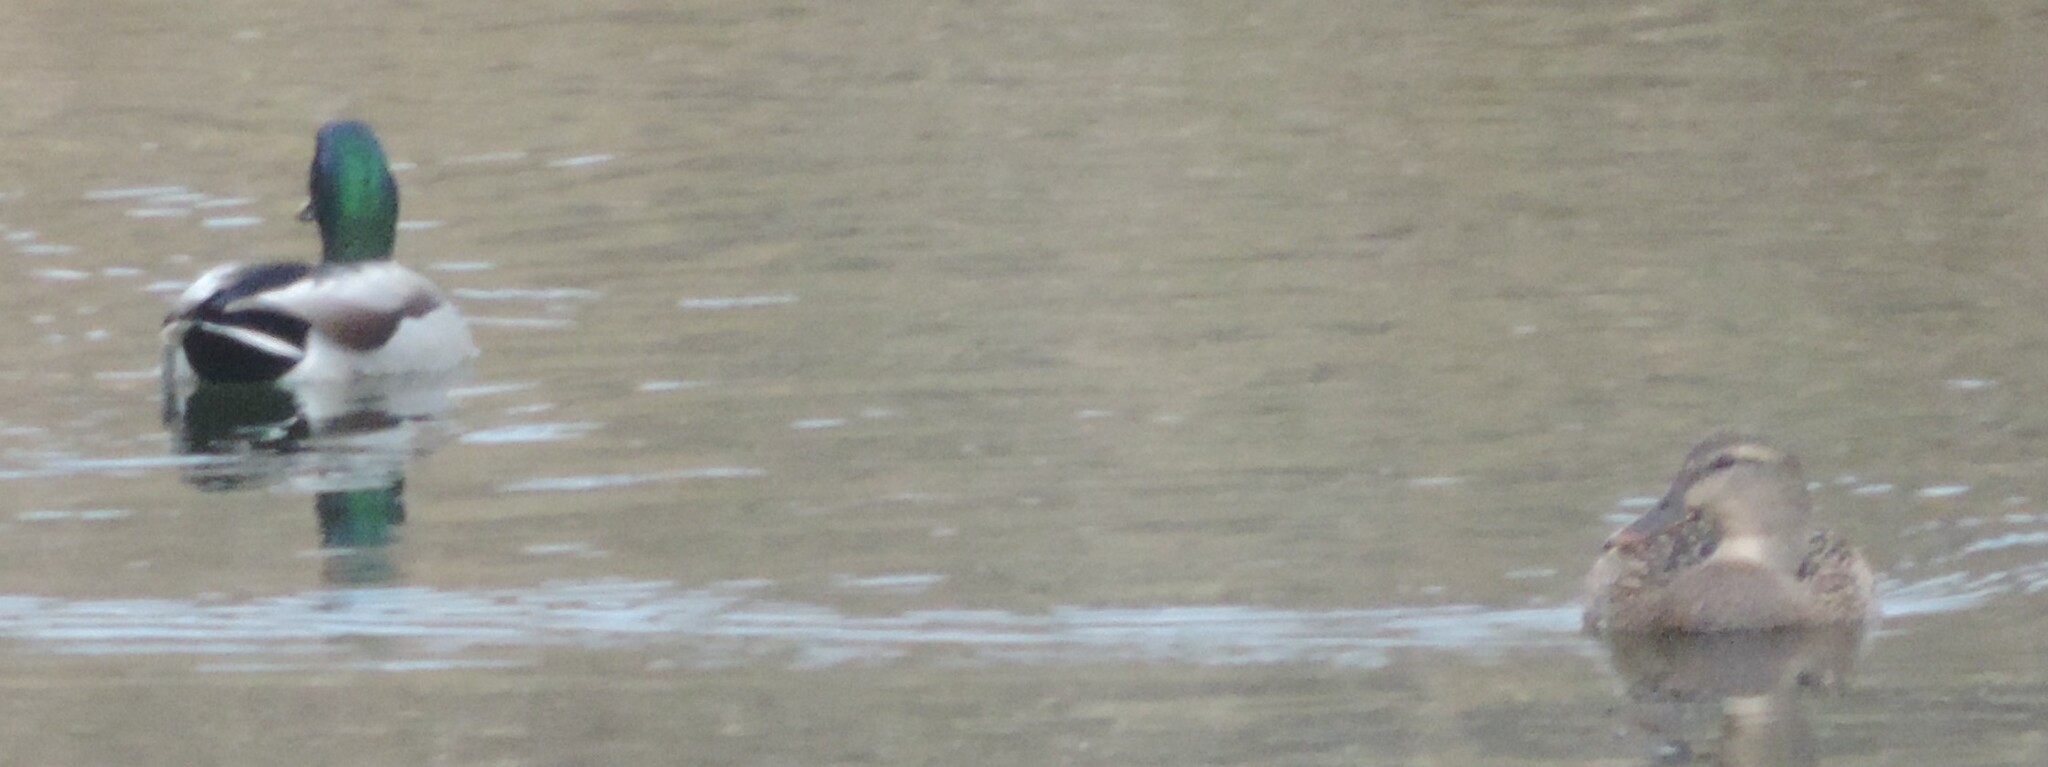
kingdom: Animalia
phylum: Chordata
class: Aves
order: Anseriformes
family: Anatidae
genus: Anas
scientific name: Anas platyrhynchos
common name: Mallard
